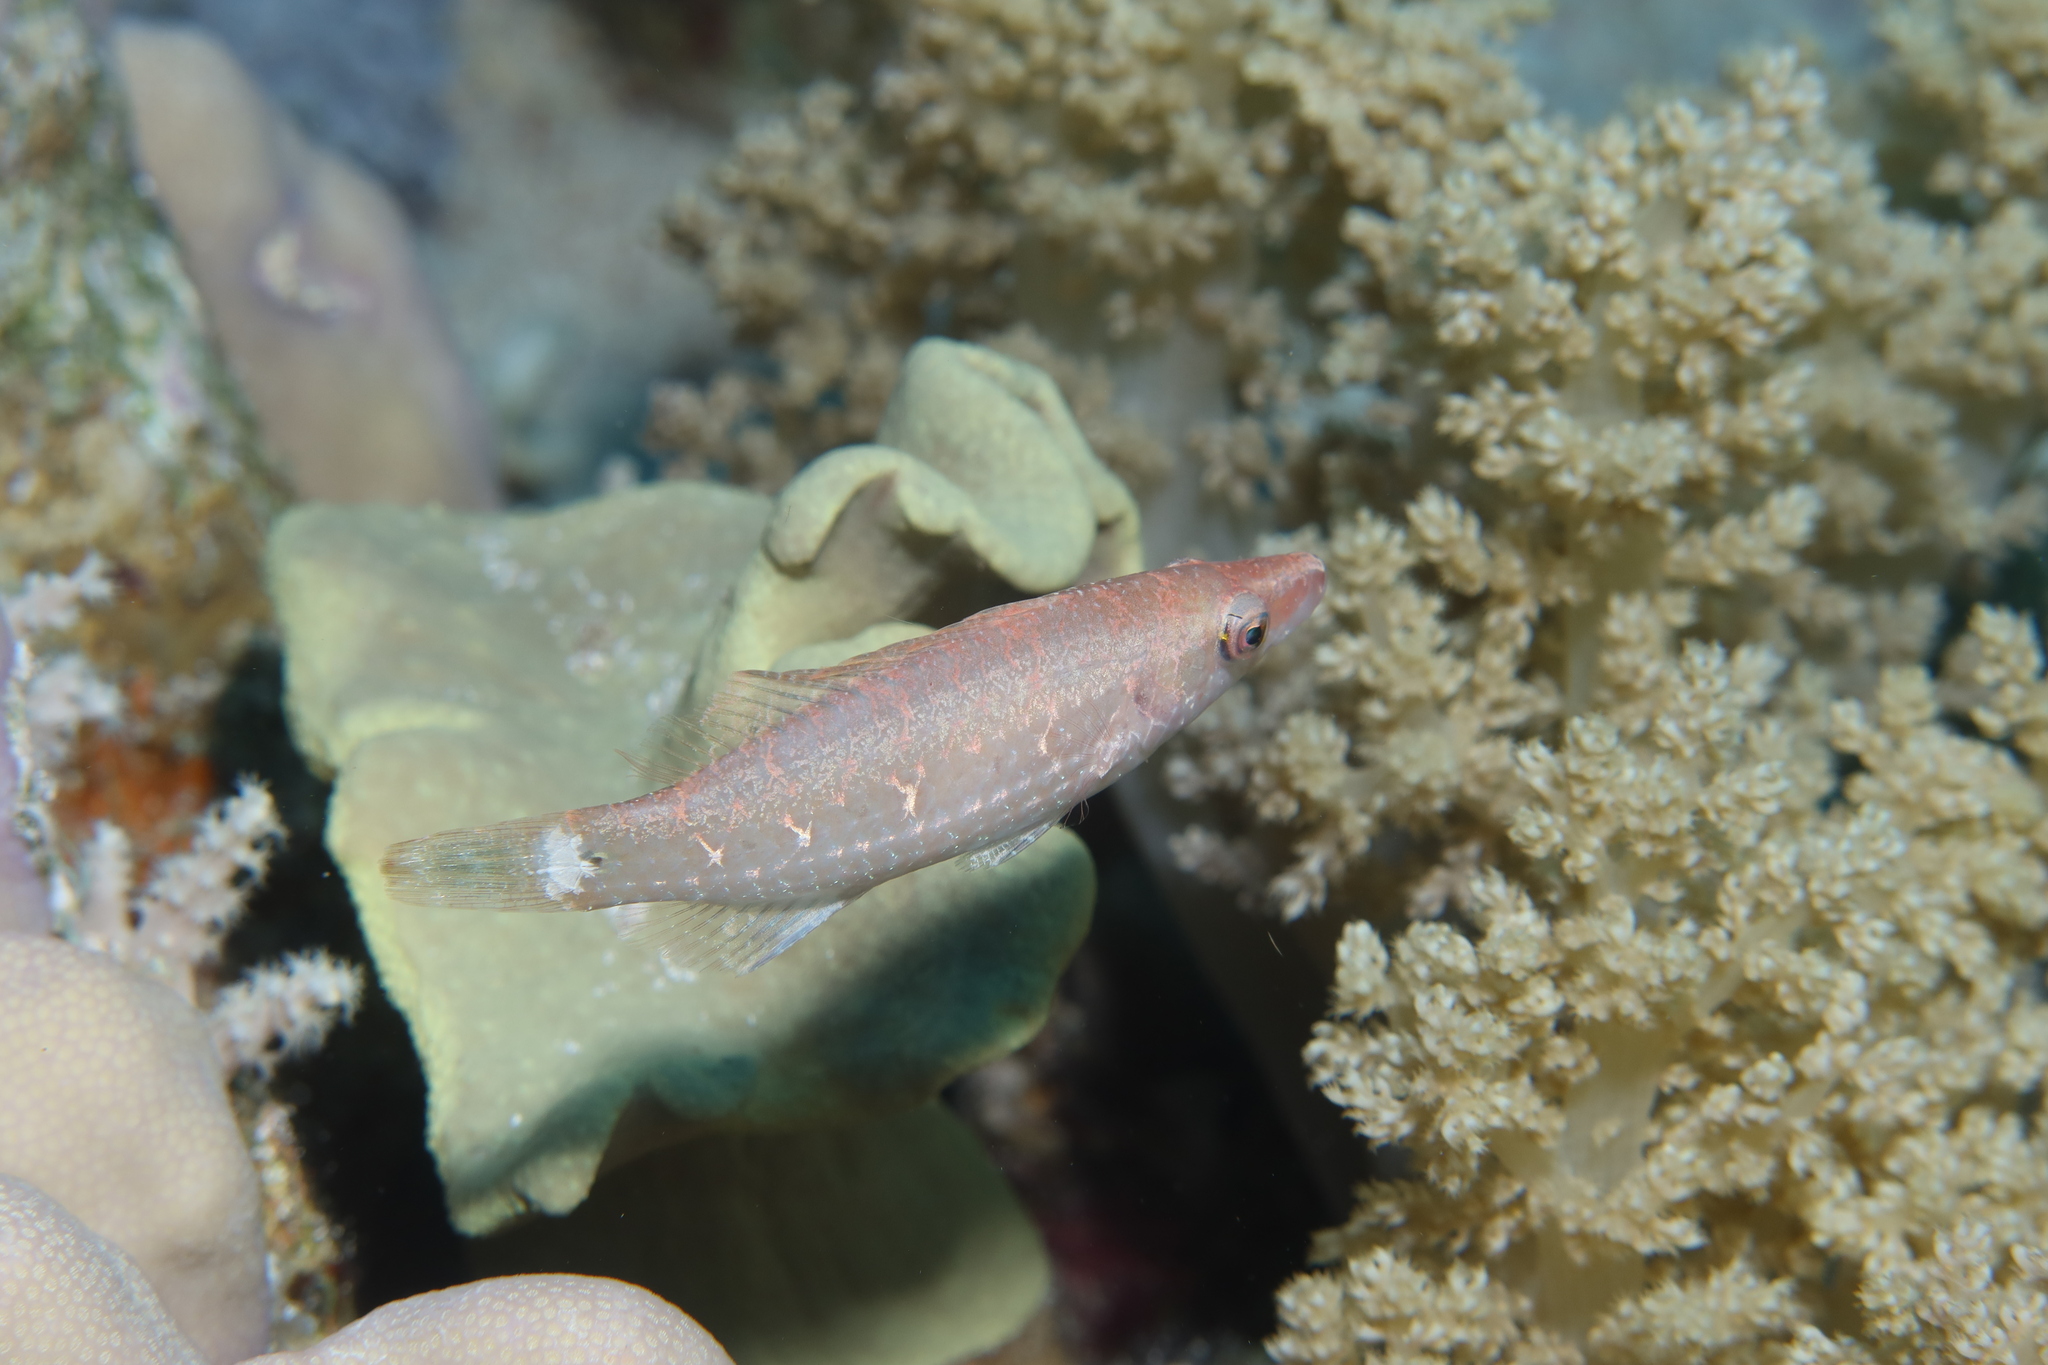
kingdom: Animalia
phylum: Chordata
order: Perciformes
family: Labridae
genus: Oxycheilinus
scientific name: Oxycheilinus mentalis
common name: Mental wrasse
